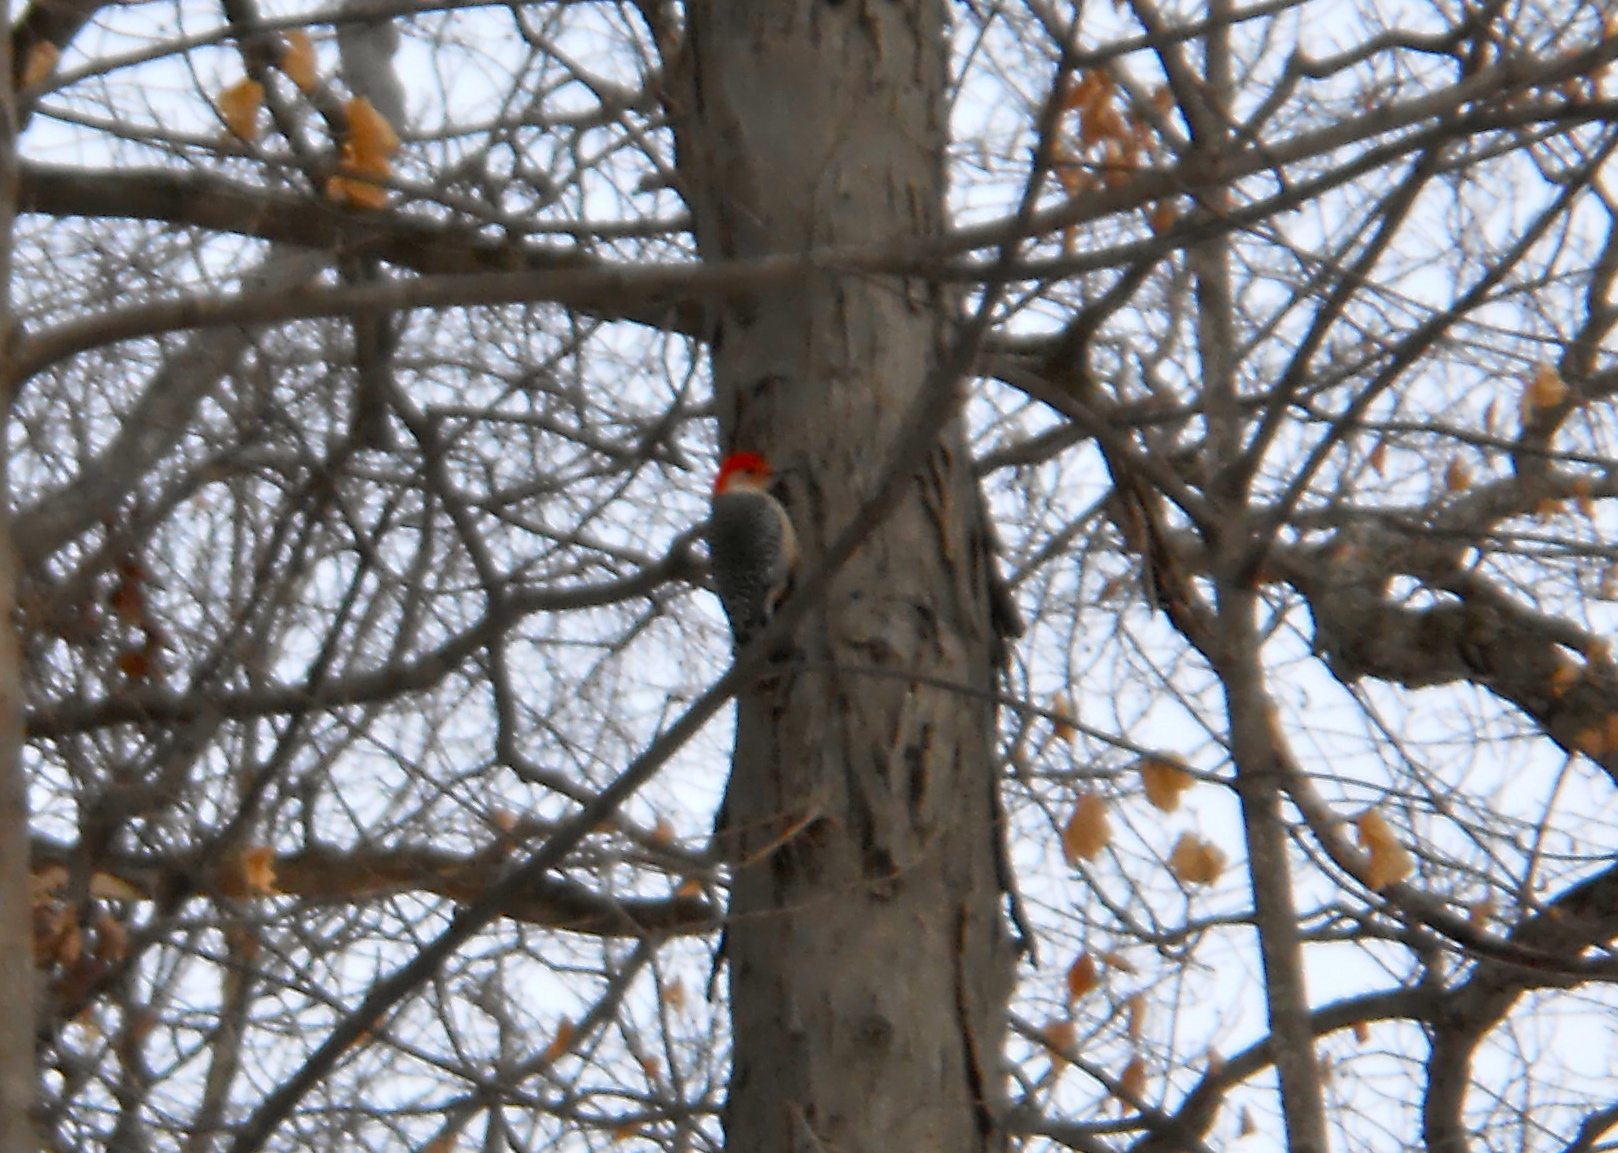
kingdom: Animalia
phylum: Chordata
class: Aves
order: Piciformes
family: Picidae
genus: Melanerpes
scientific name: Melanerpes carolinus
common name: Red-bellied woodpecker
